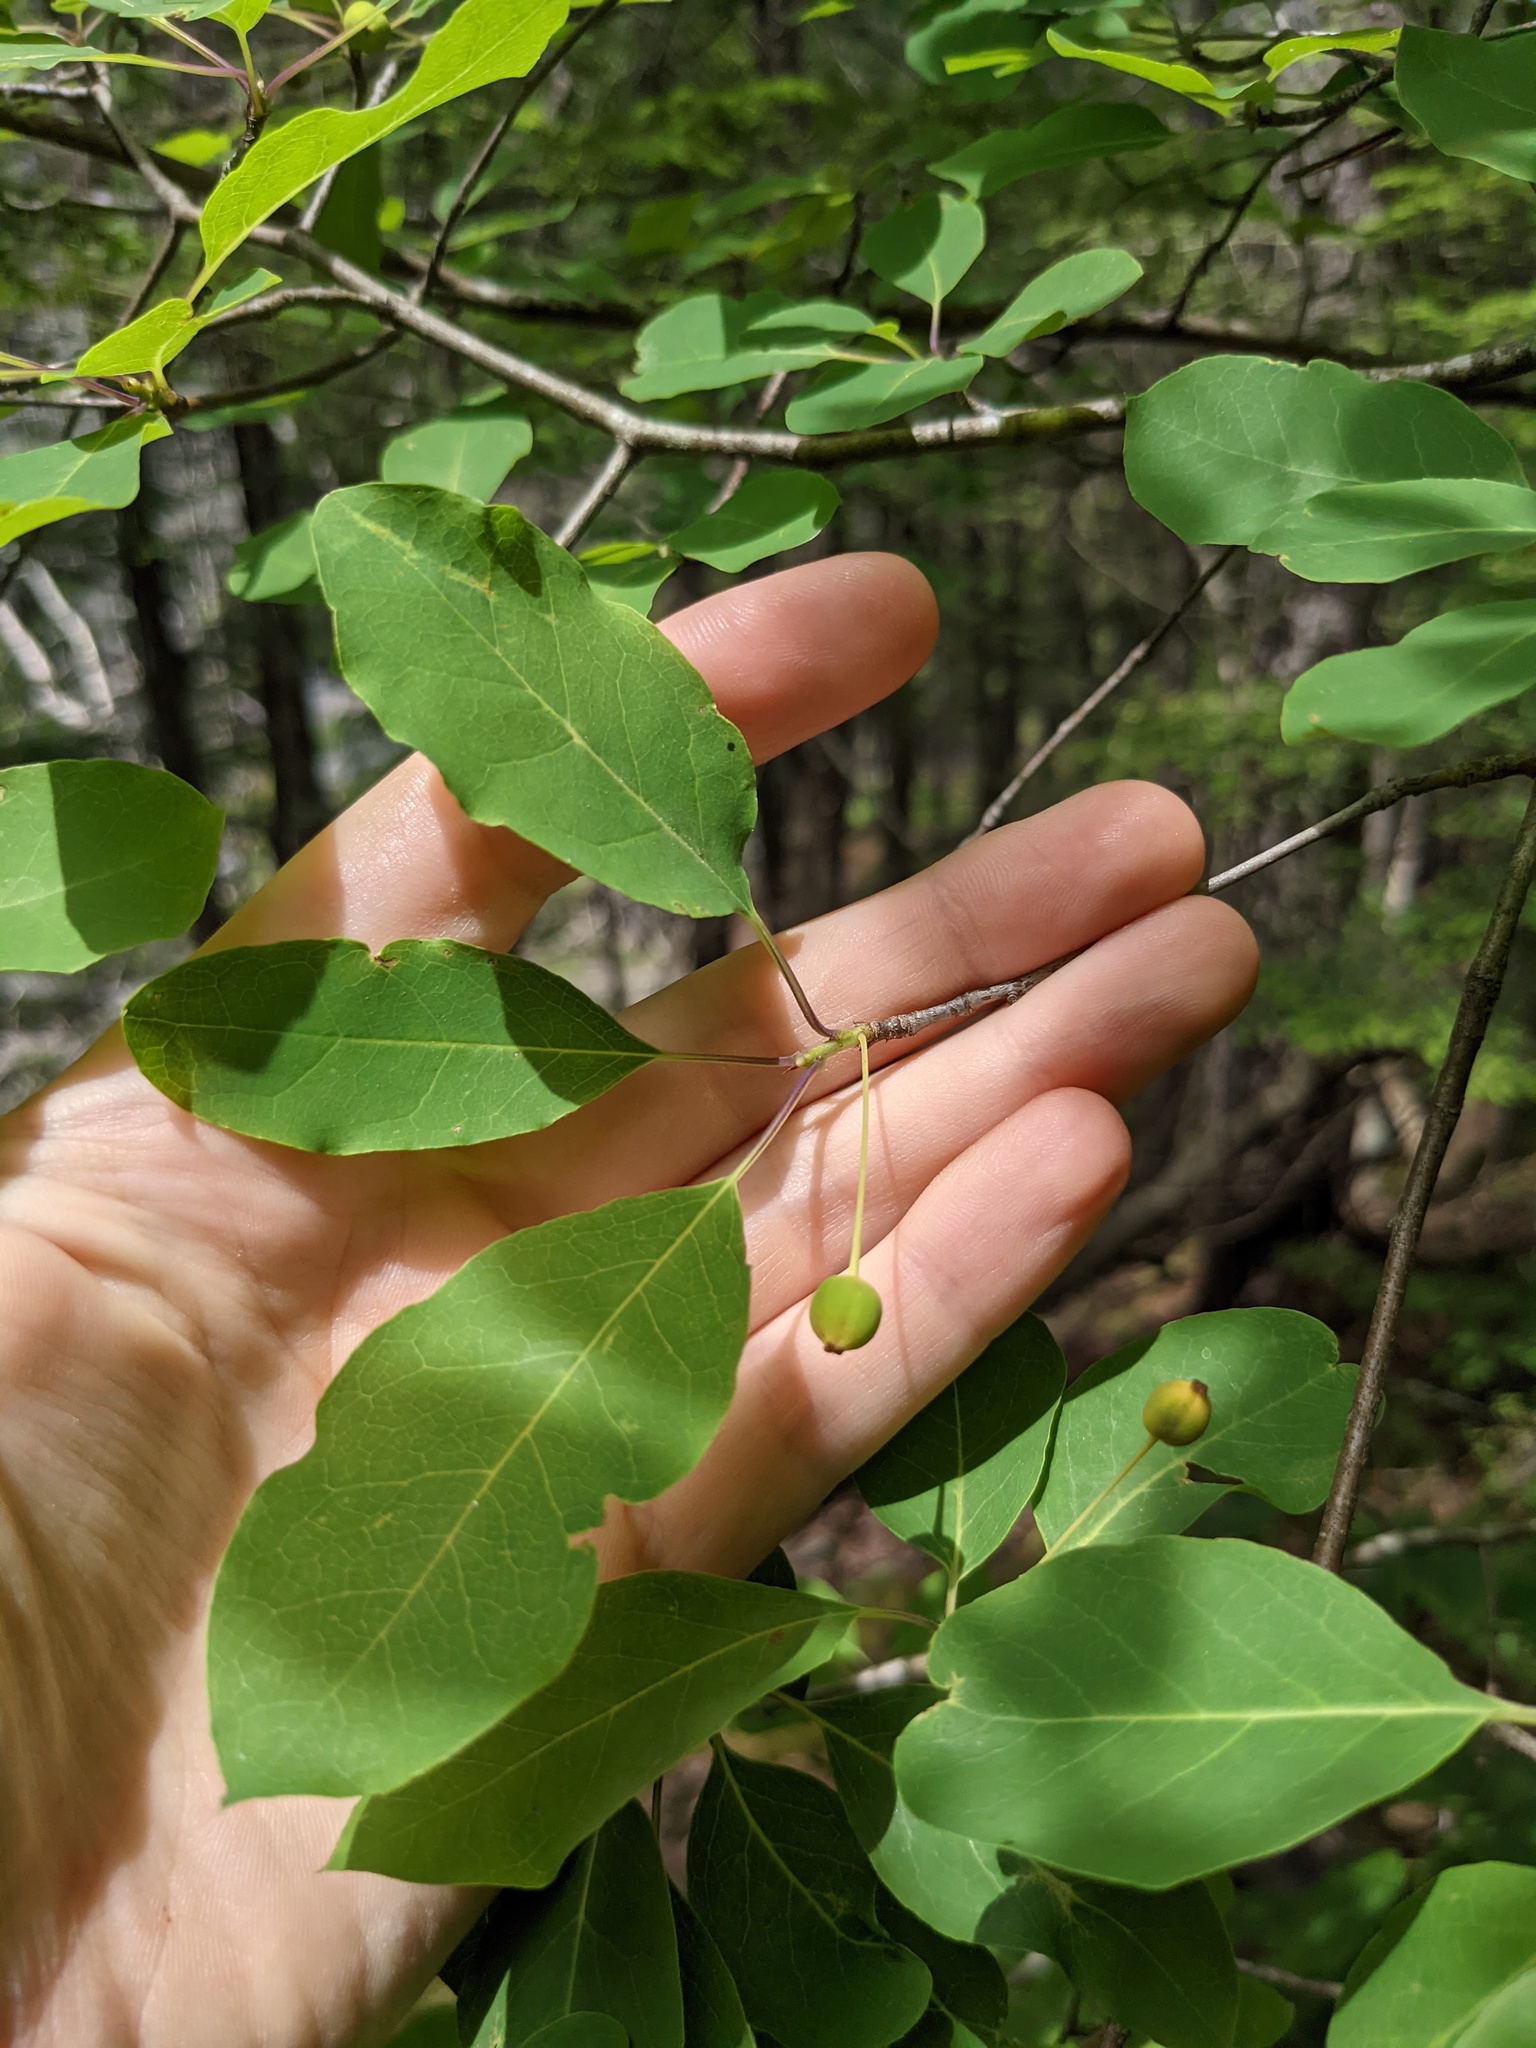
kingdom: Plantae
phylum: Tracheophyta
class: Magnoliopsida
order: Aquifoliales
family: Aquifoliaceae
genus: Ilex
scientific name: Ilex mucronata
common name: Catberry
